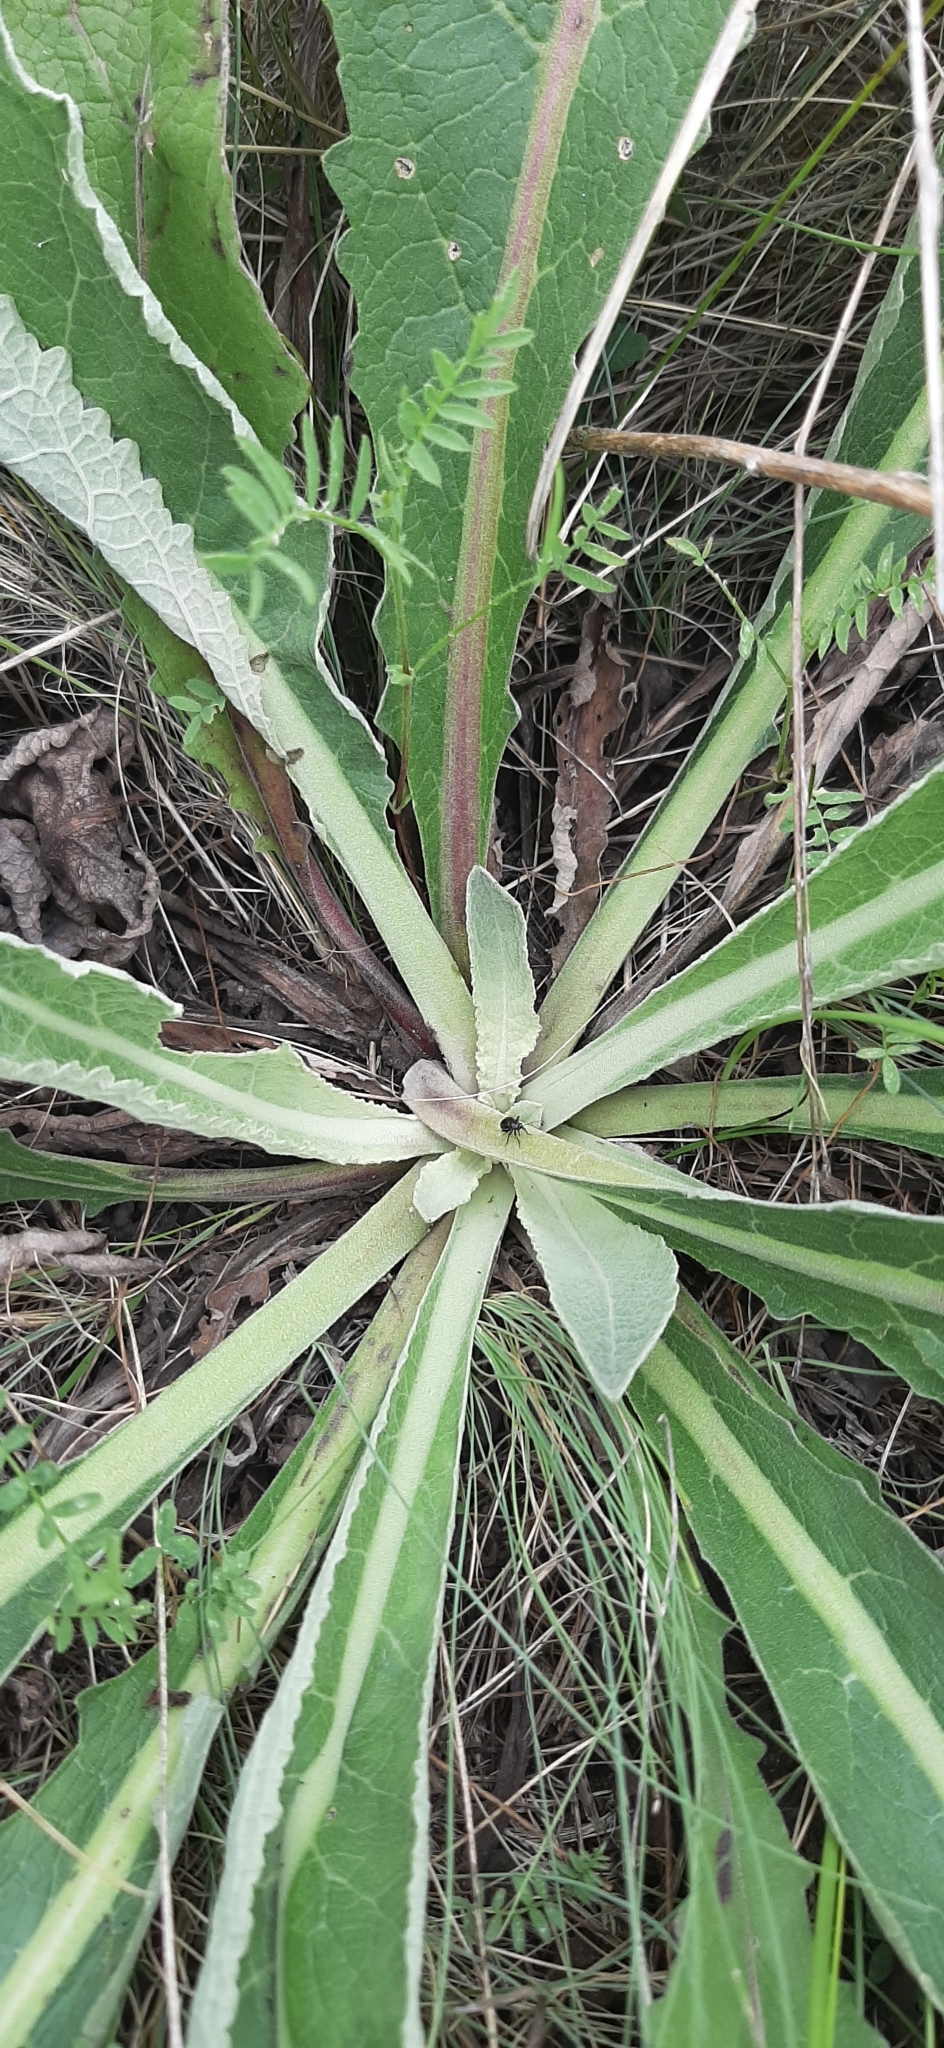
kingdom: Plantae
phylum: Tracheophyta
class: Magnoliopsida
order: Lamiales
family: Scrophulariaceae
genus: Verbascum
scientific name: Verbascum lychnitis
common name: White mullein
